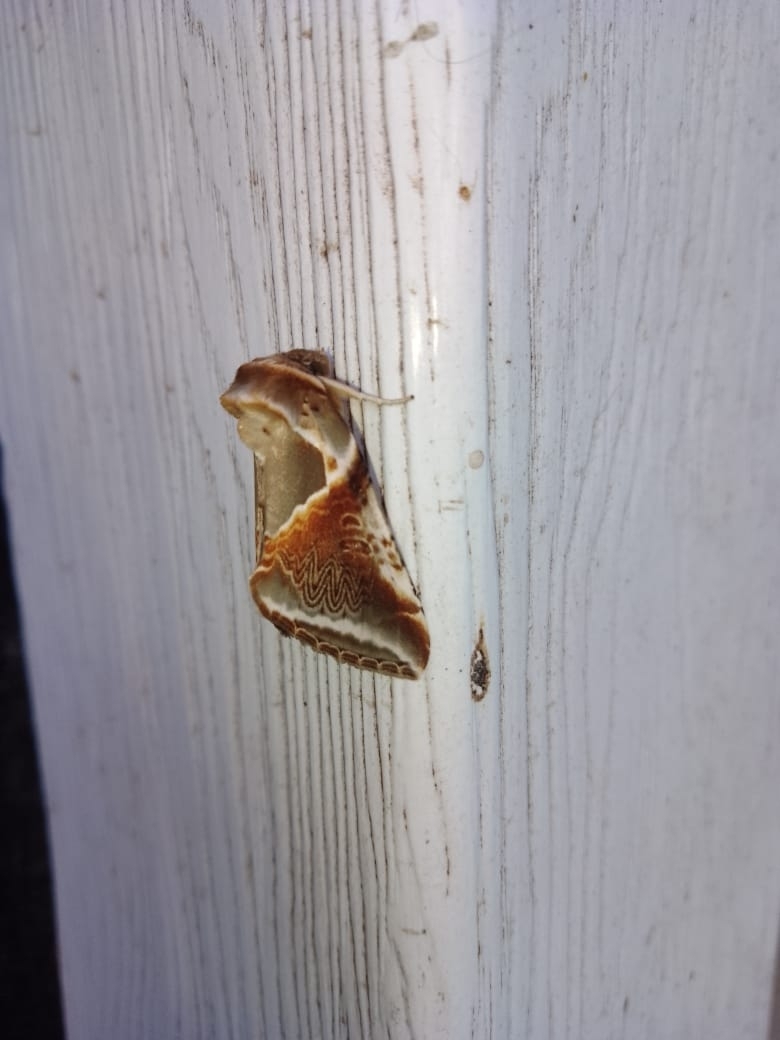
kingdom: Animalia
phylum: Arthropoda
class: Insecta
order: Lepidoptera
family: Drepanidae
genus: Habrosyne
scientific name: Habrosyne pyritoides
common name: Buff arches
